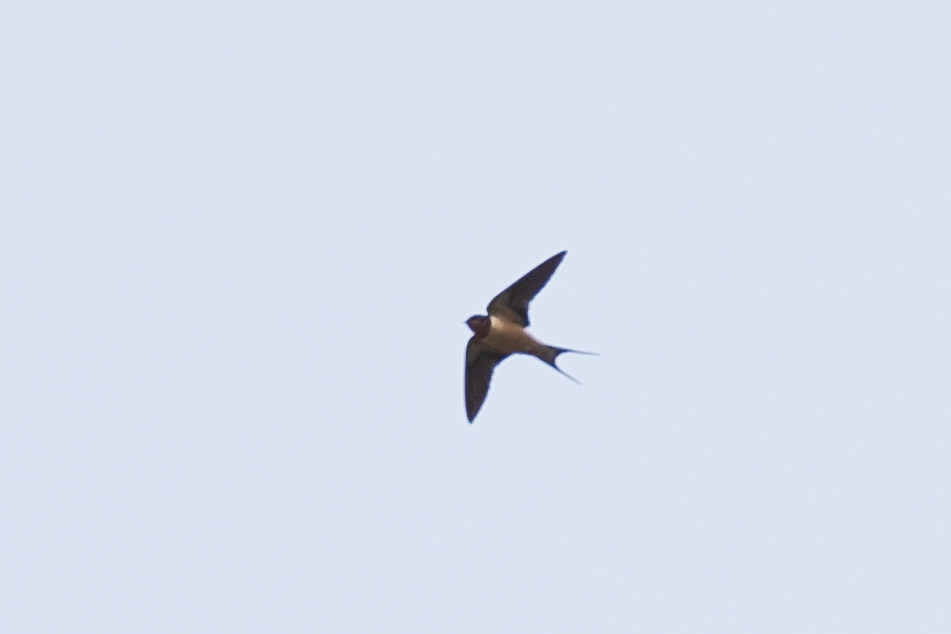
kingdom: Animalia
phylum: Chordata
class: Aves
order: Passeriformes
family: Hirundinidae
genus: Hirundo
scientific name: Hirundo rustica
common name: Barn swallow
